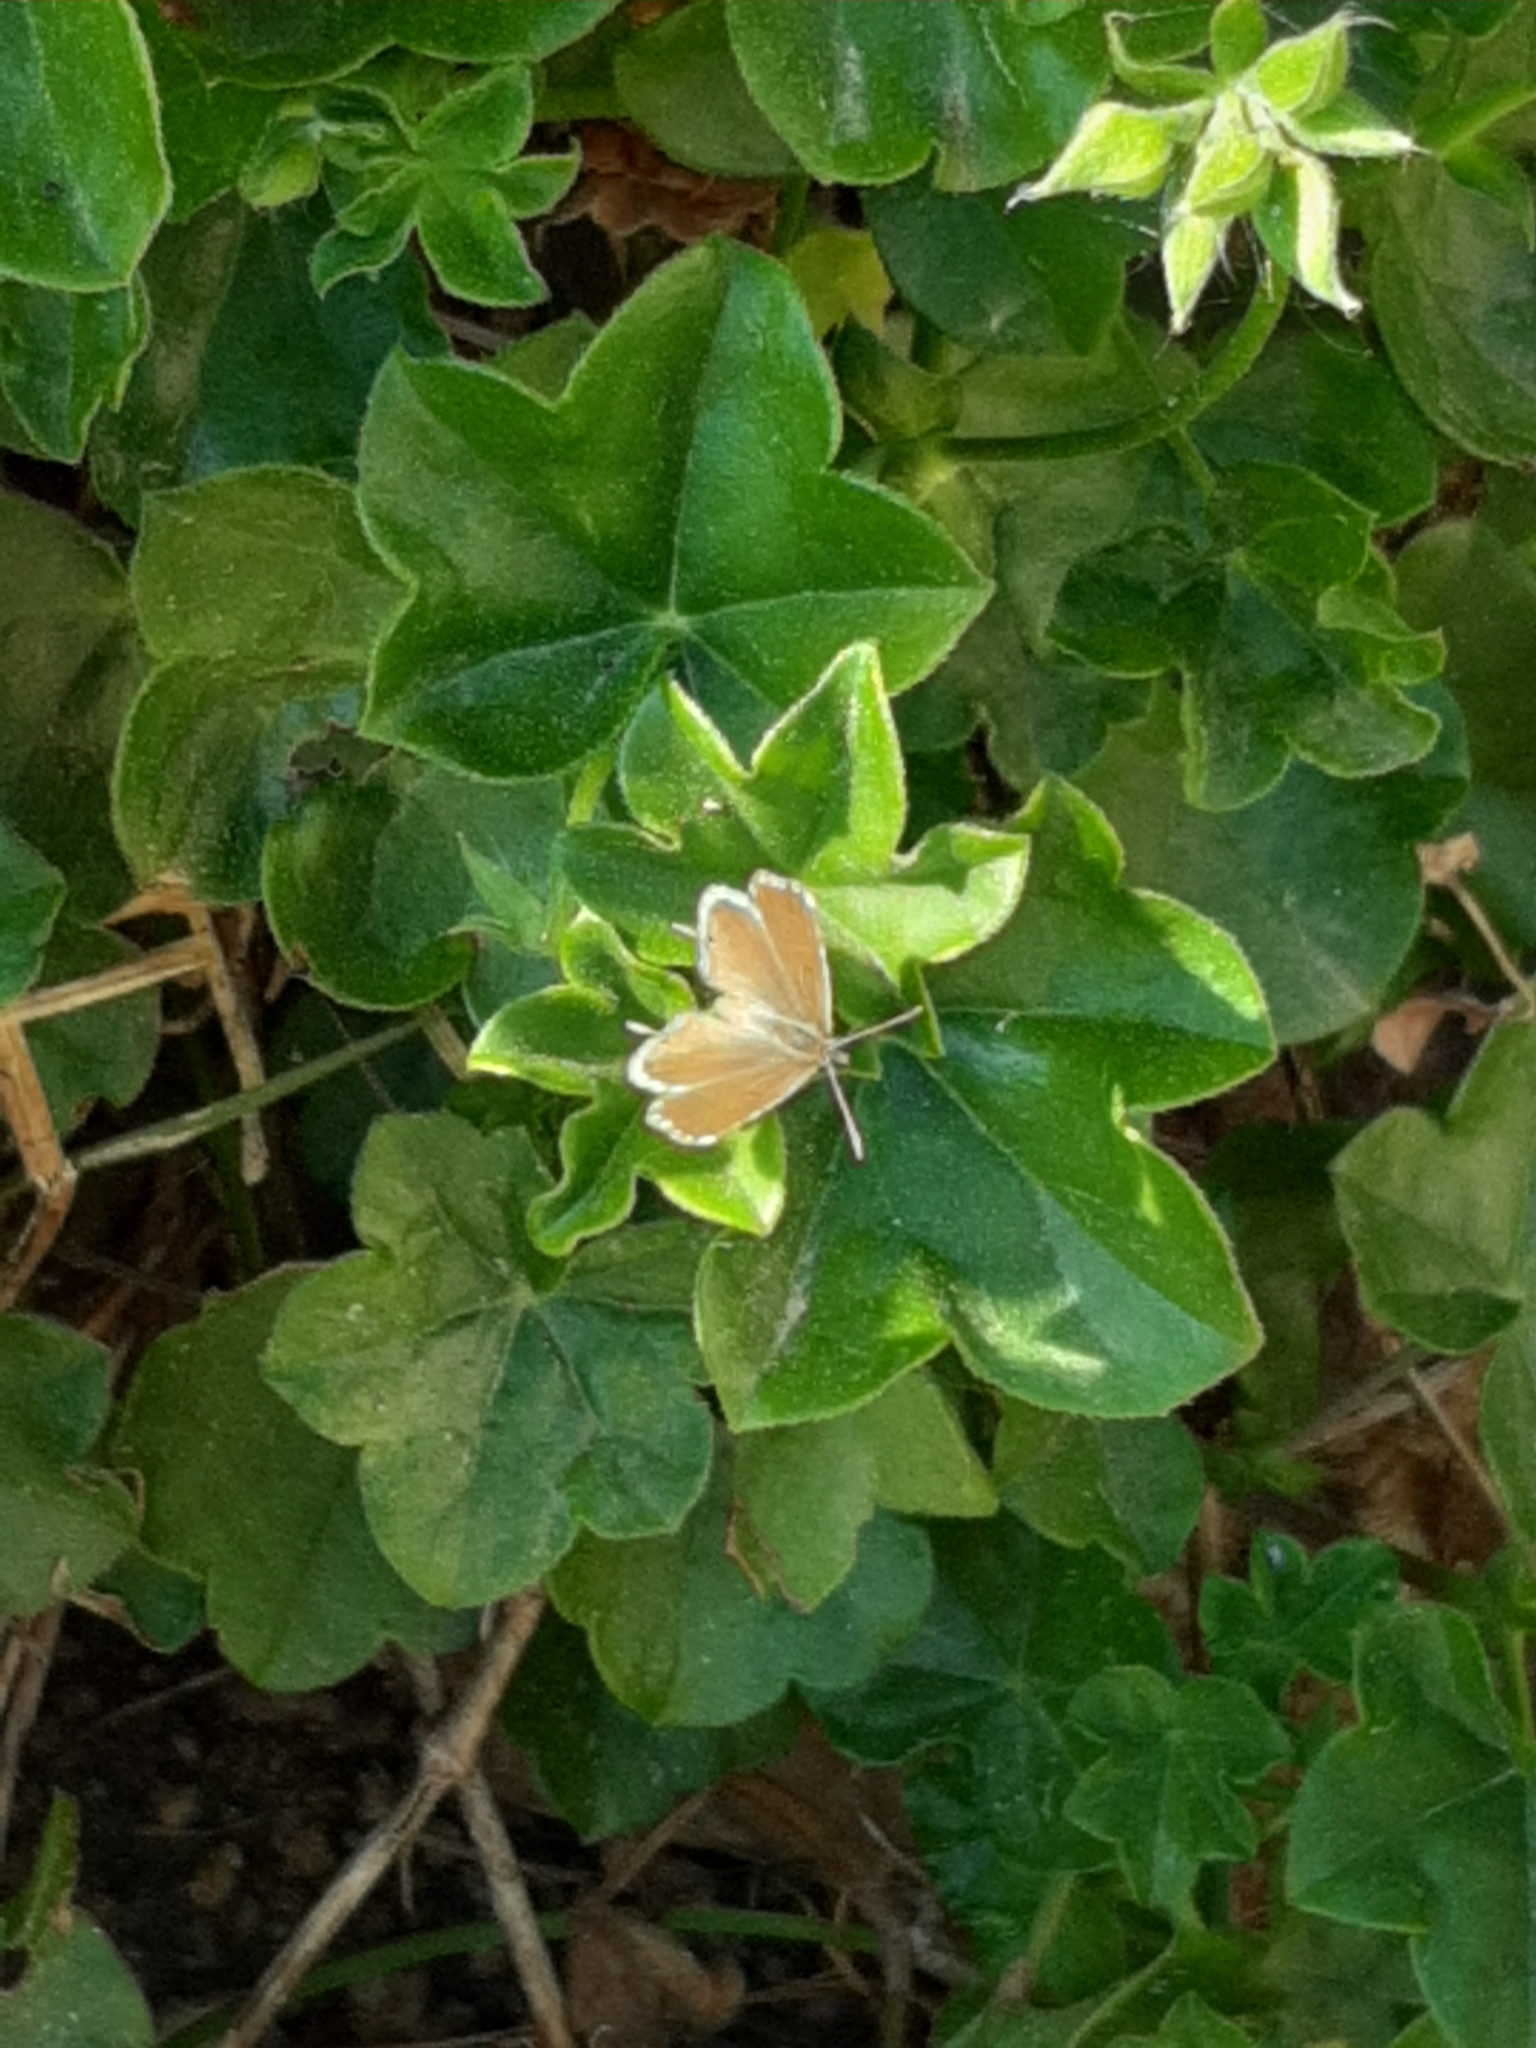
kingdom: Animalia
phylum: Arthropoda
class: Insecta
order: Lepidoptera
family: Lycaenidae
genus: Cacyreus
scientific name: Cacyreus marshalli
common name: Geranium bronze
